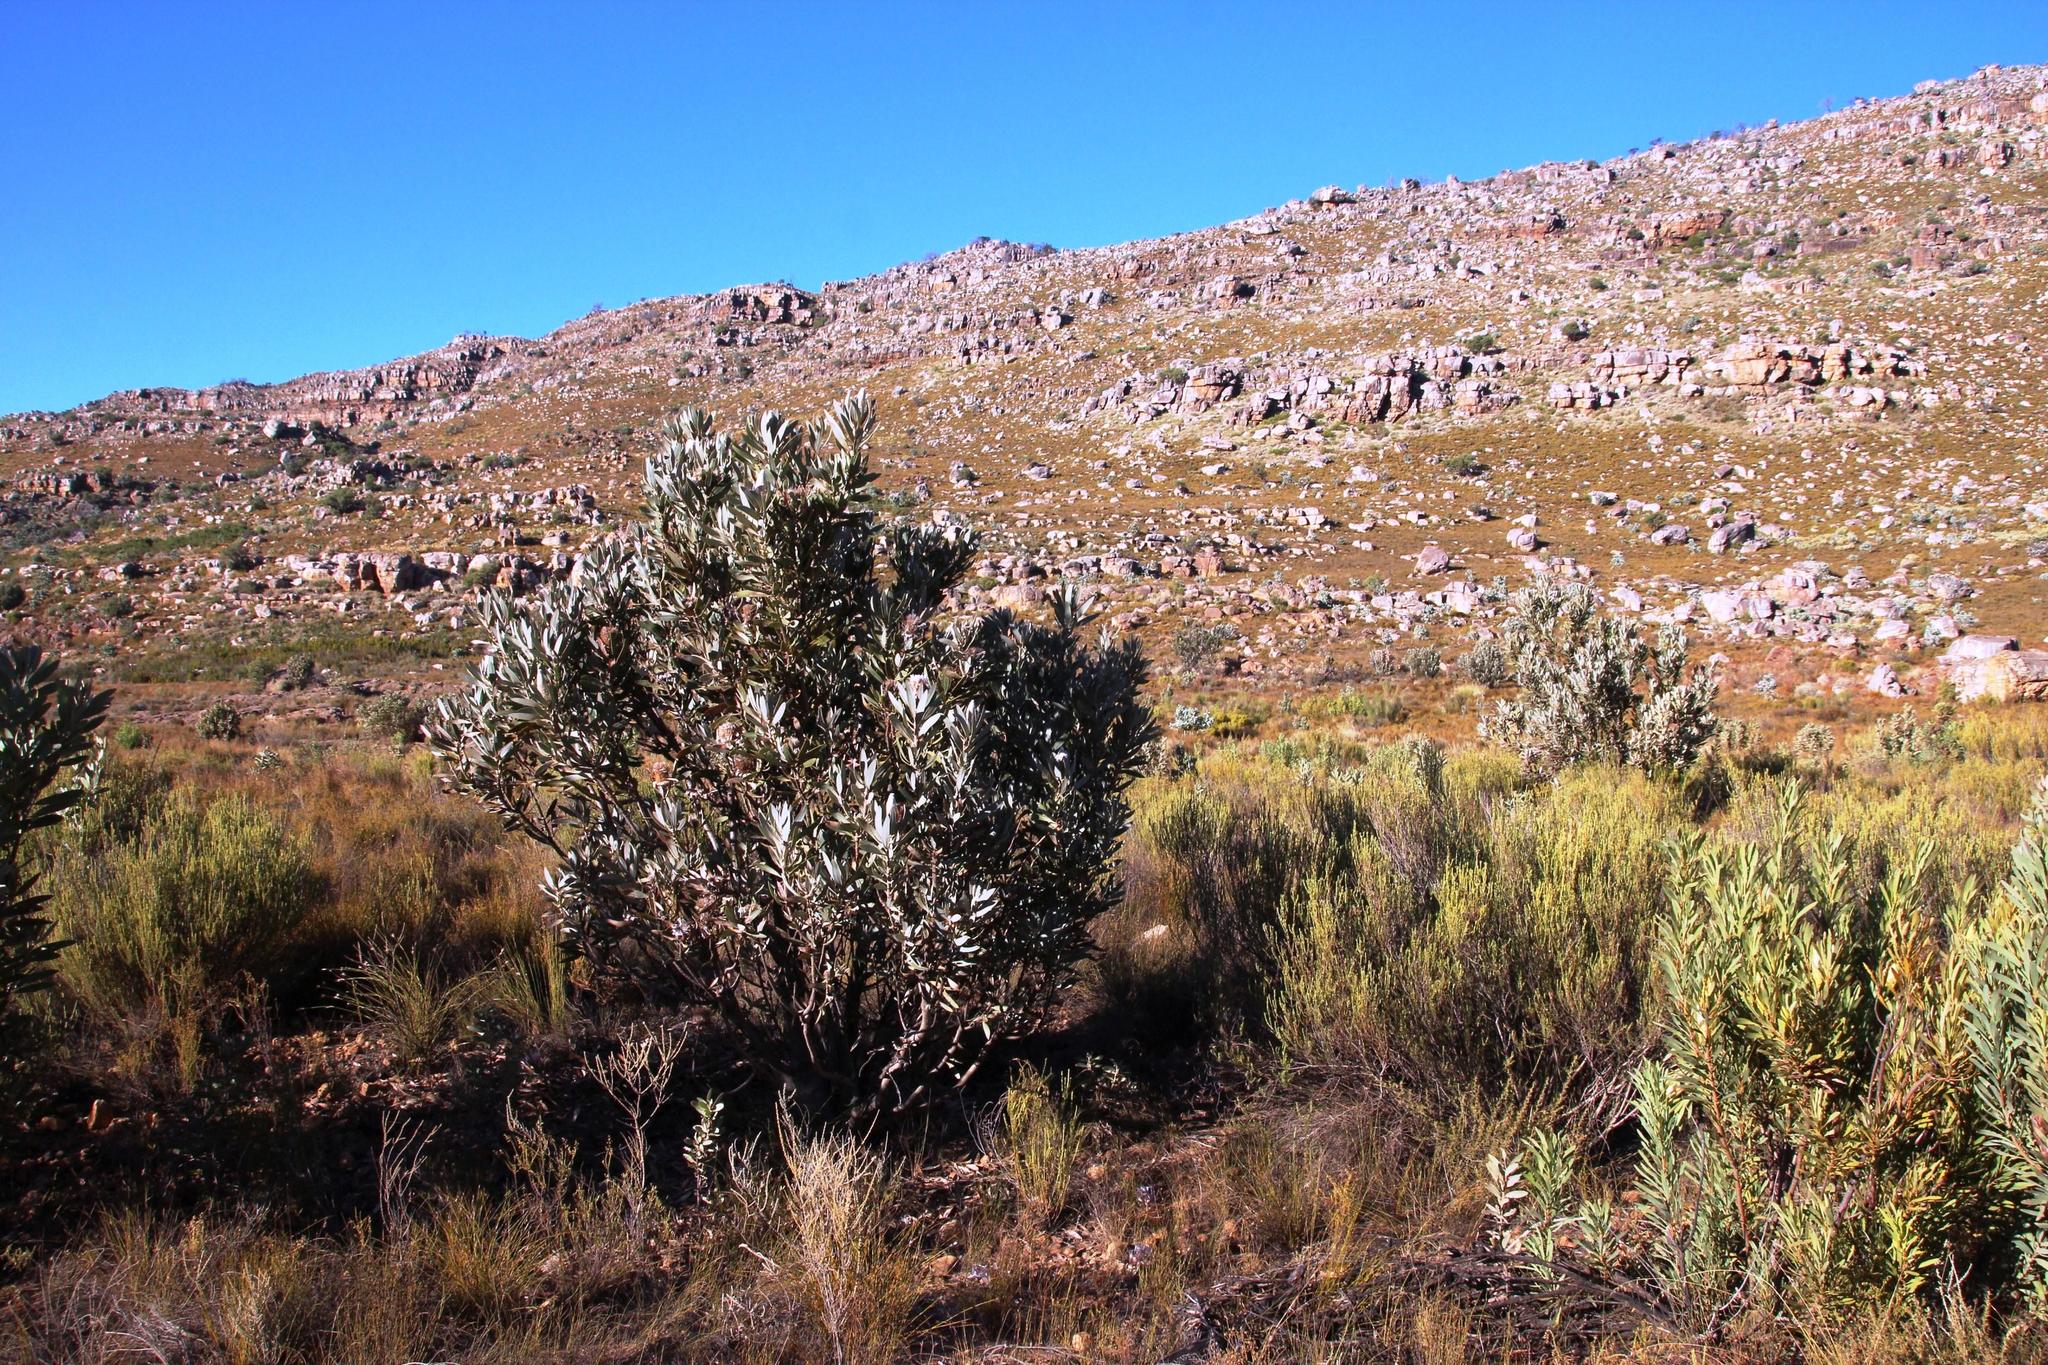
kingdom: Plantae
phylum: Tracheophyta
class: Magnoliopsida
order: Proteales
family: Proteaceae
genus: Protea
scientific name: Protea laurifolia
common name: Grey-leaf sugarbsh
